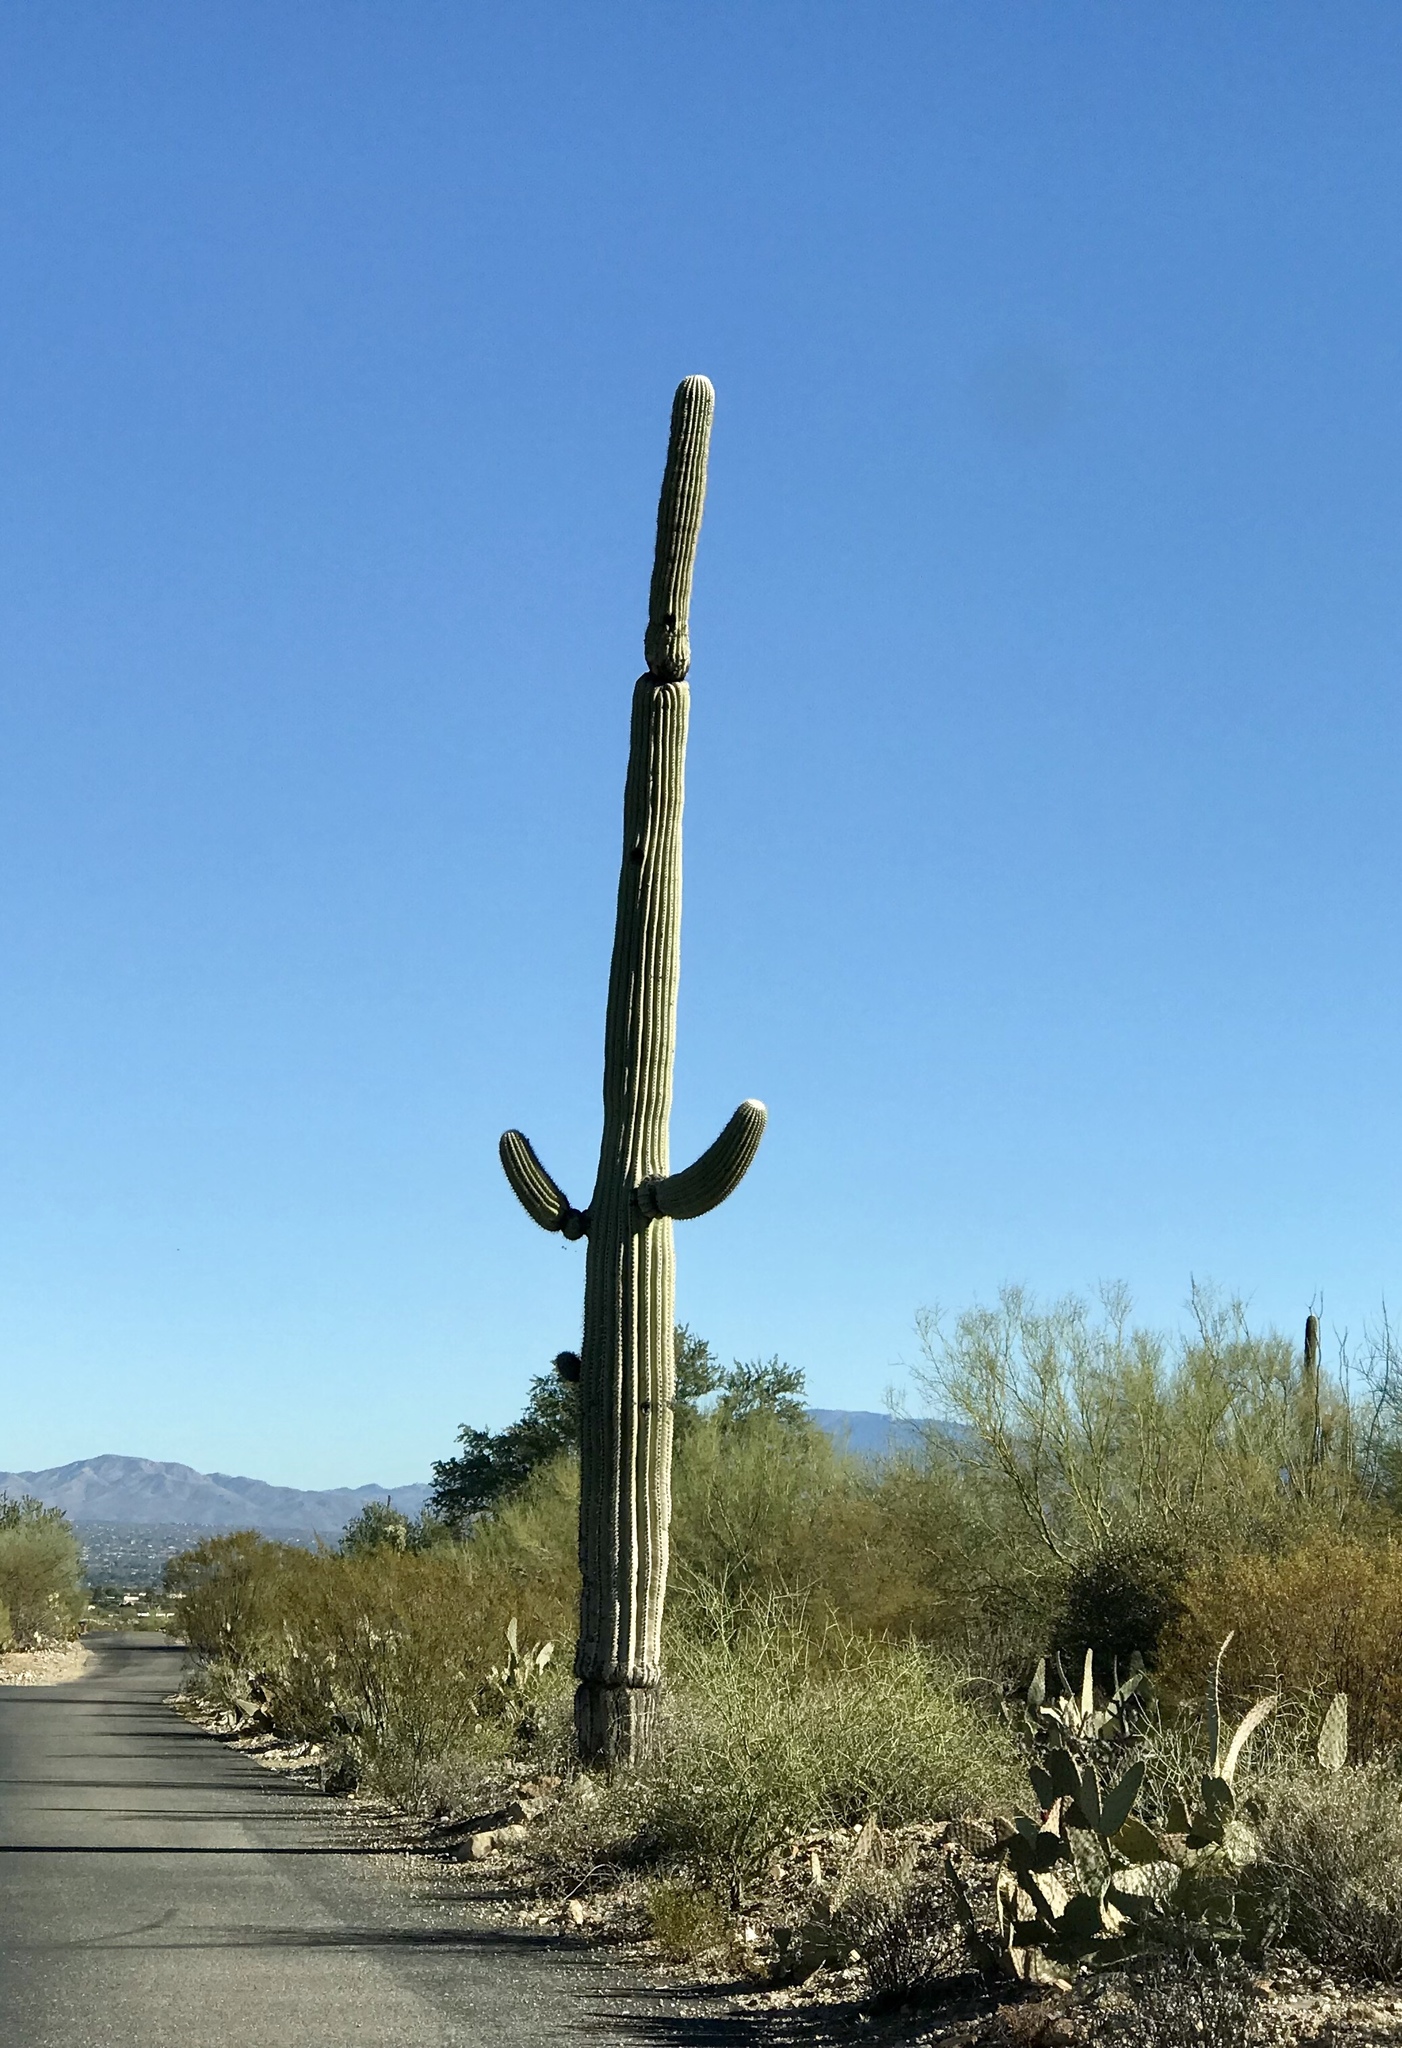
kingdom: Plantae
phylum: Tracheophyta
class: Magnoliopsida
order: Caryophyllales
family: Cactaceae
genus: Carnegiea
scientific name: Carnegiea gigantea
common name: Saguaro
